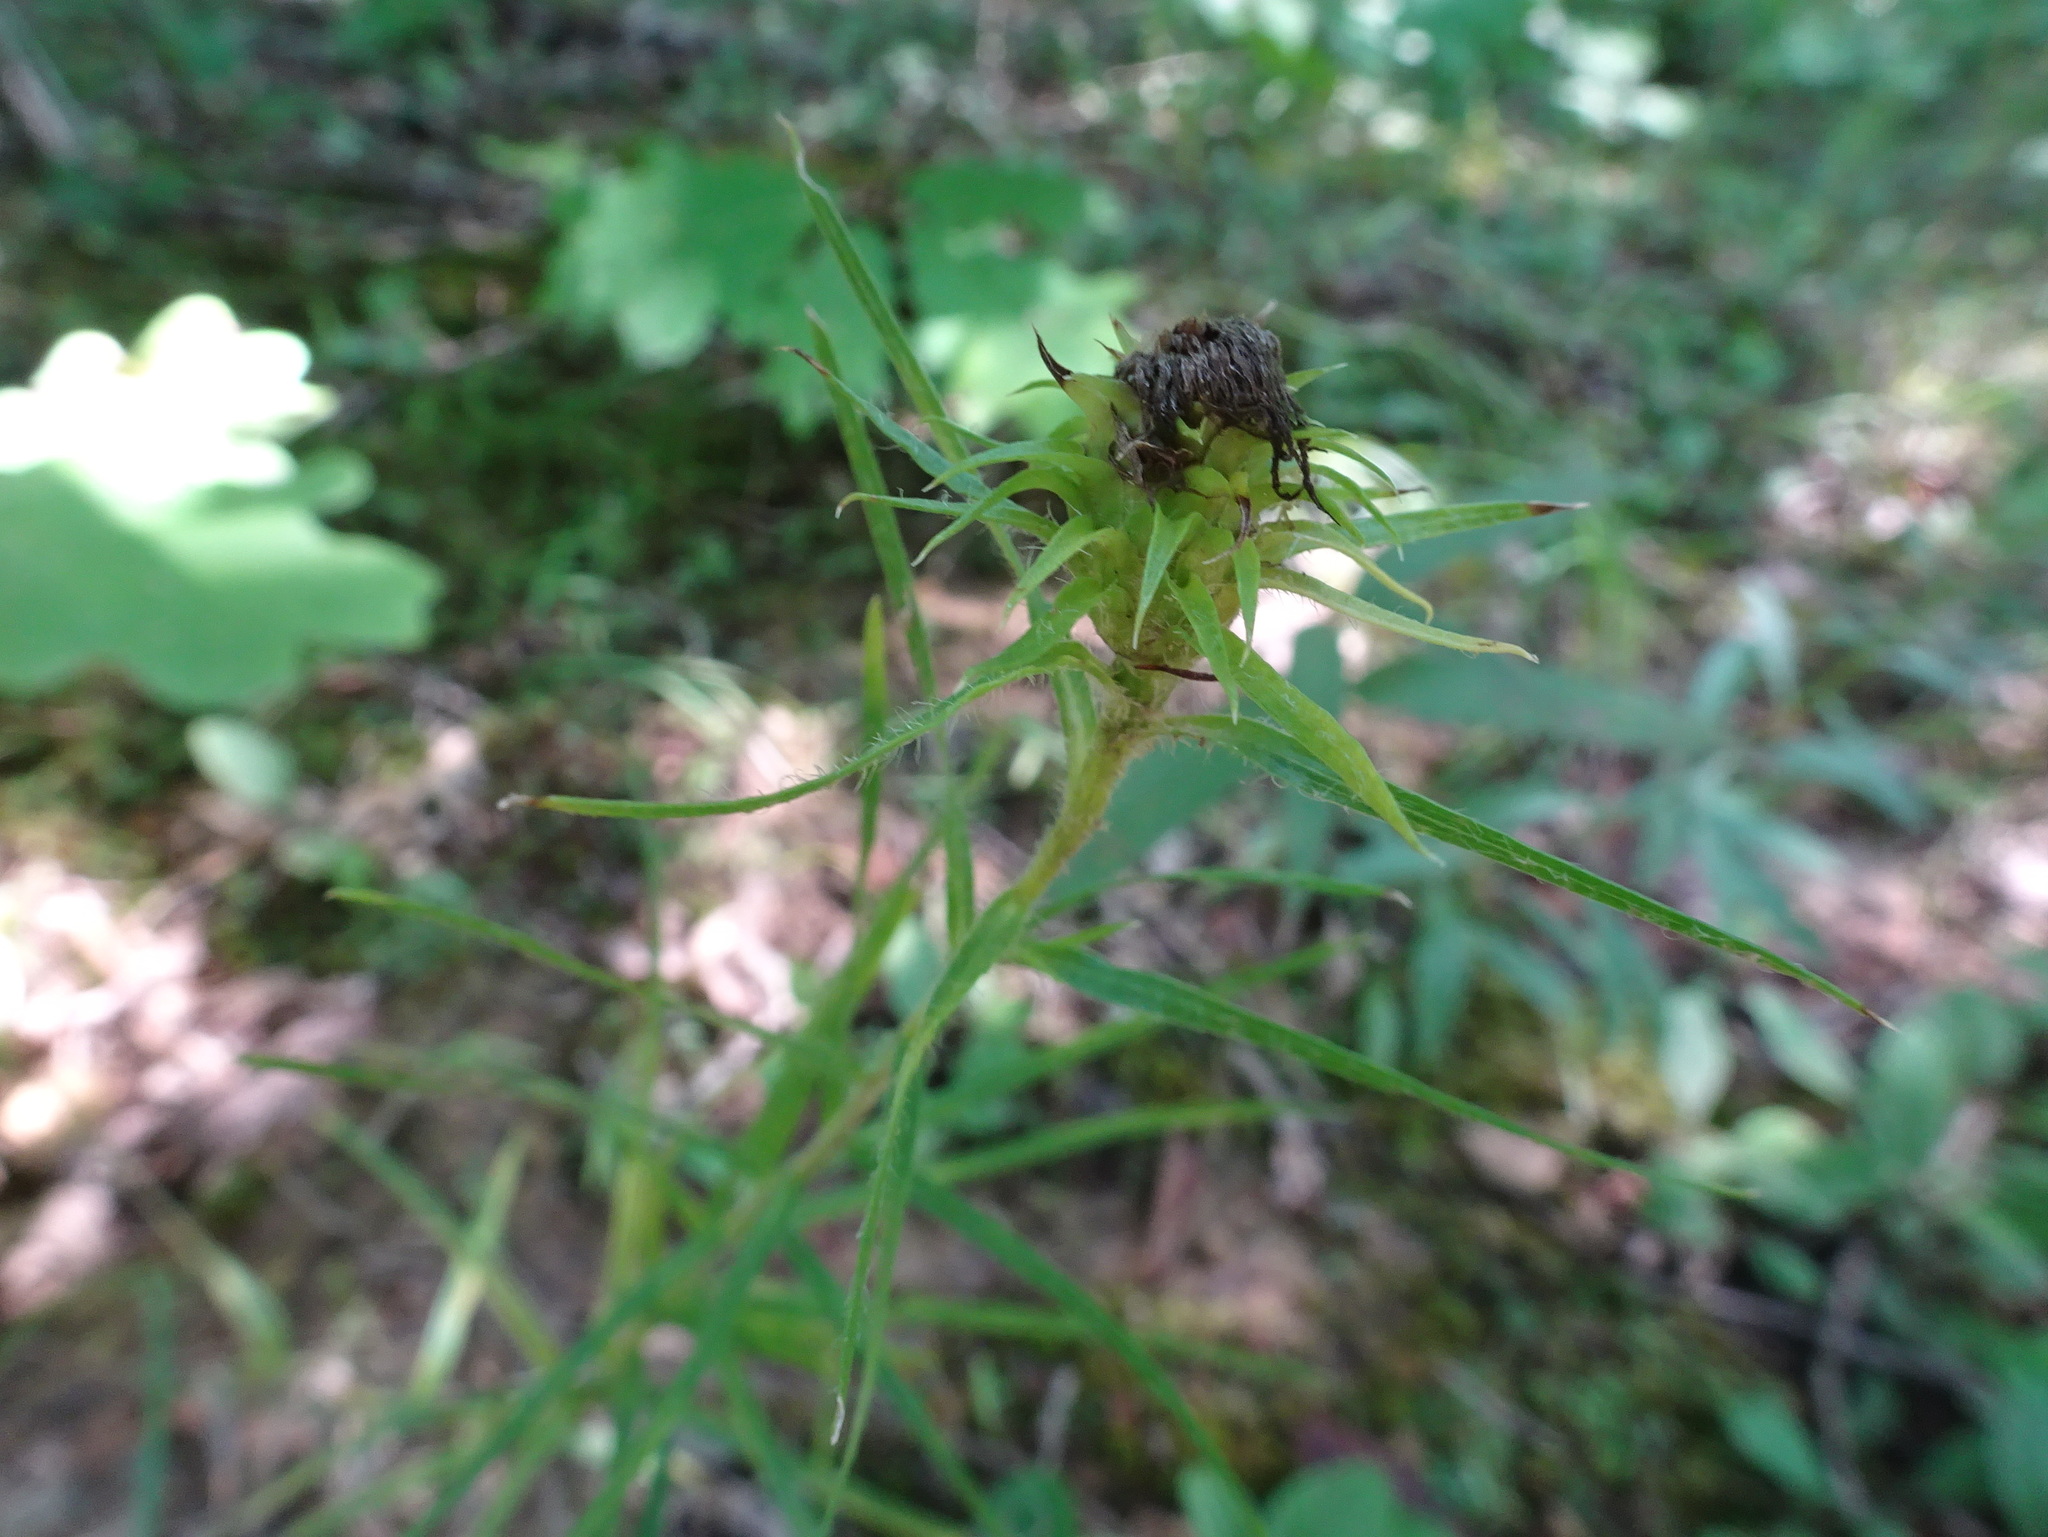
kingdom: Plantae
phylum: Tracheophyta
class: Magnoliopsida
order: Asterales
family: Asteraceae
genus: Liatris
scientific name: Liatris hirsuta
